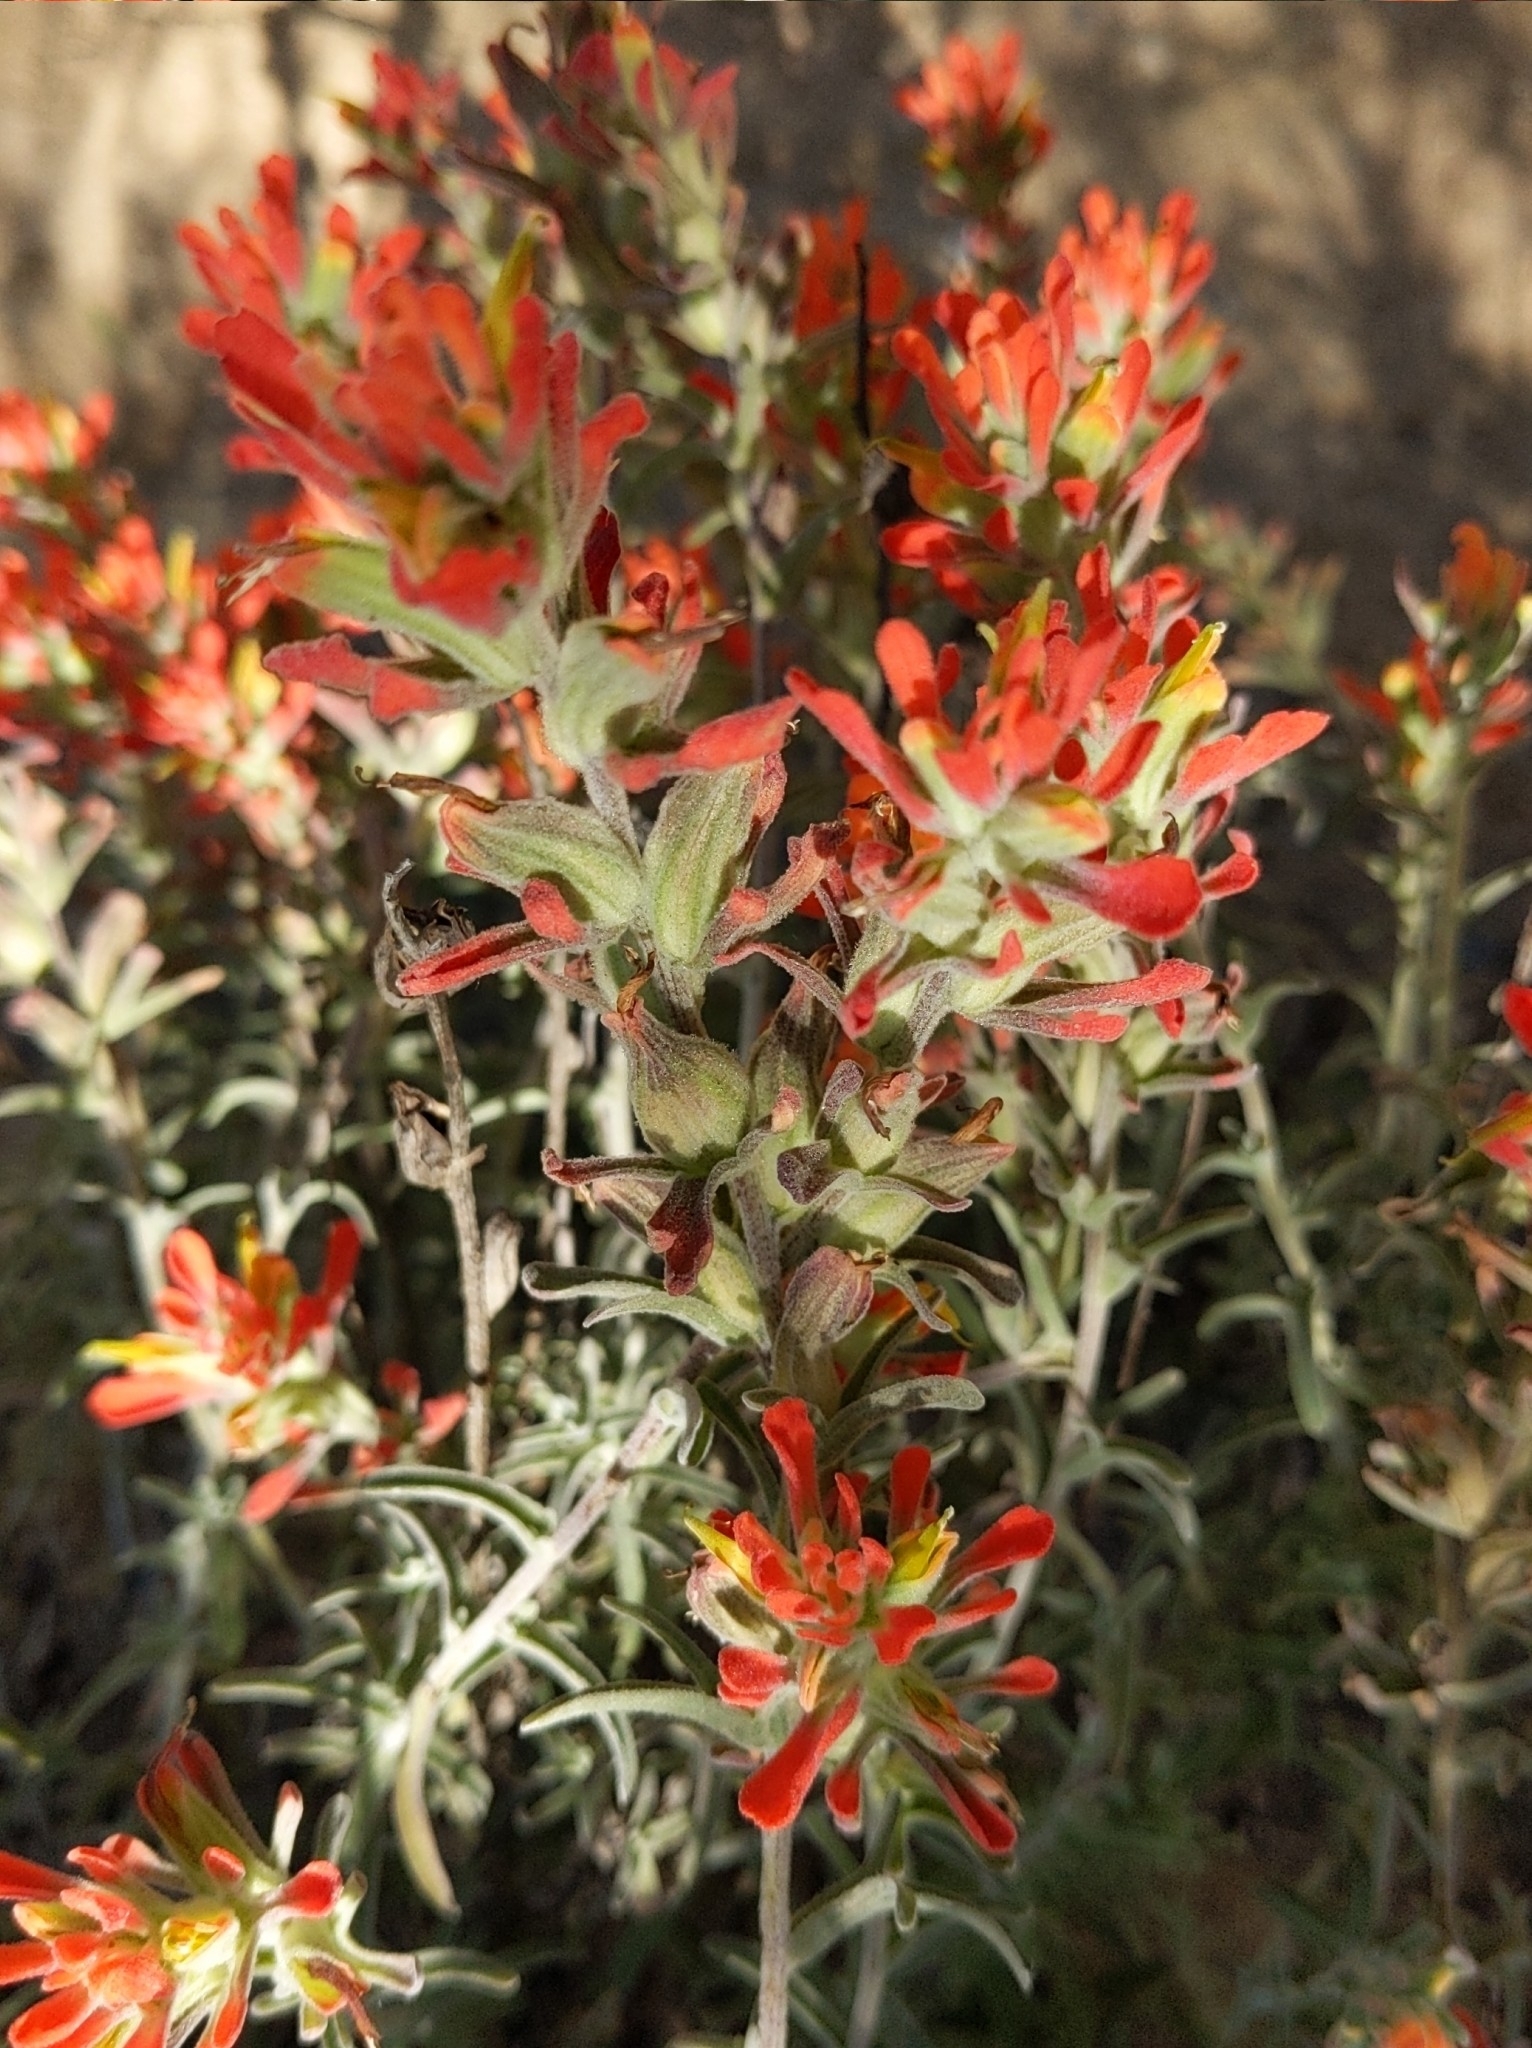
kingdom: Plantae
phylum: Tracheophyta
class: Magnoliopsida
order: Lamiales
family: Orobanchaceae
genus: Castilleja
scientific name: Castilleja foliolosa
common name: Woolly indian paintbrush
